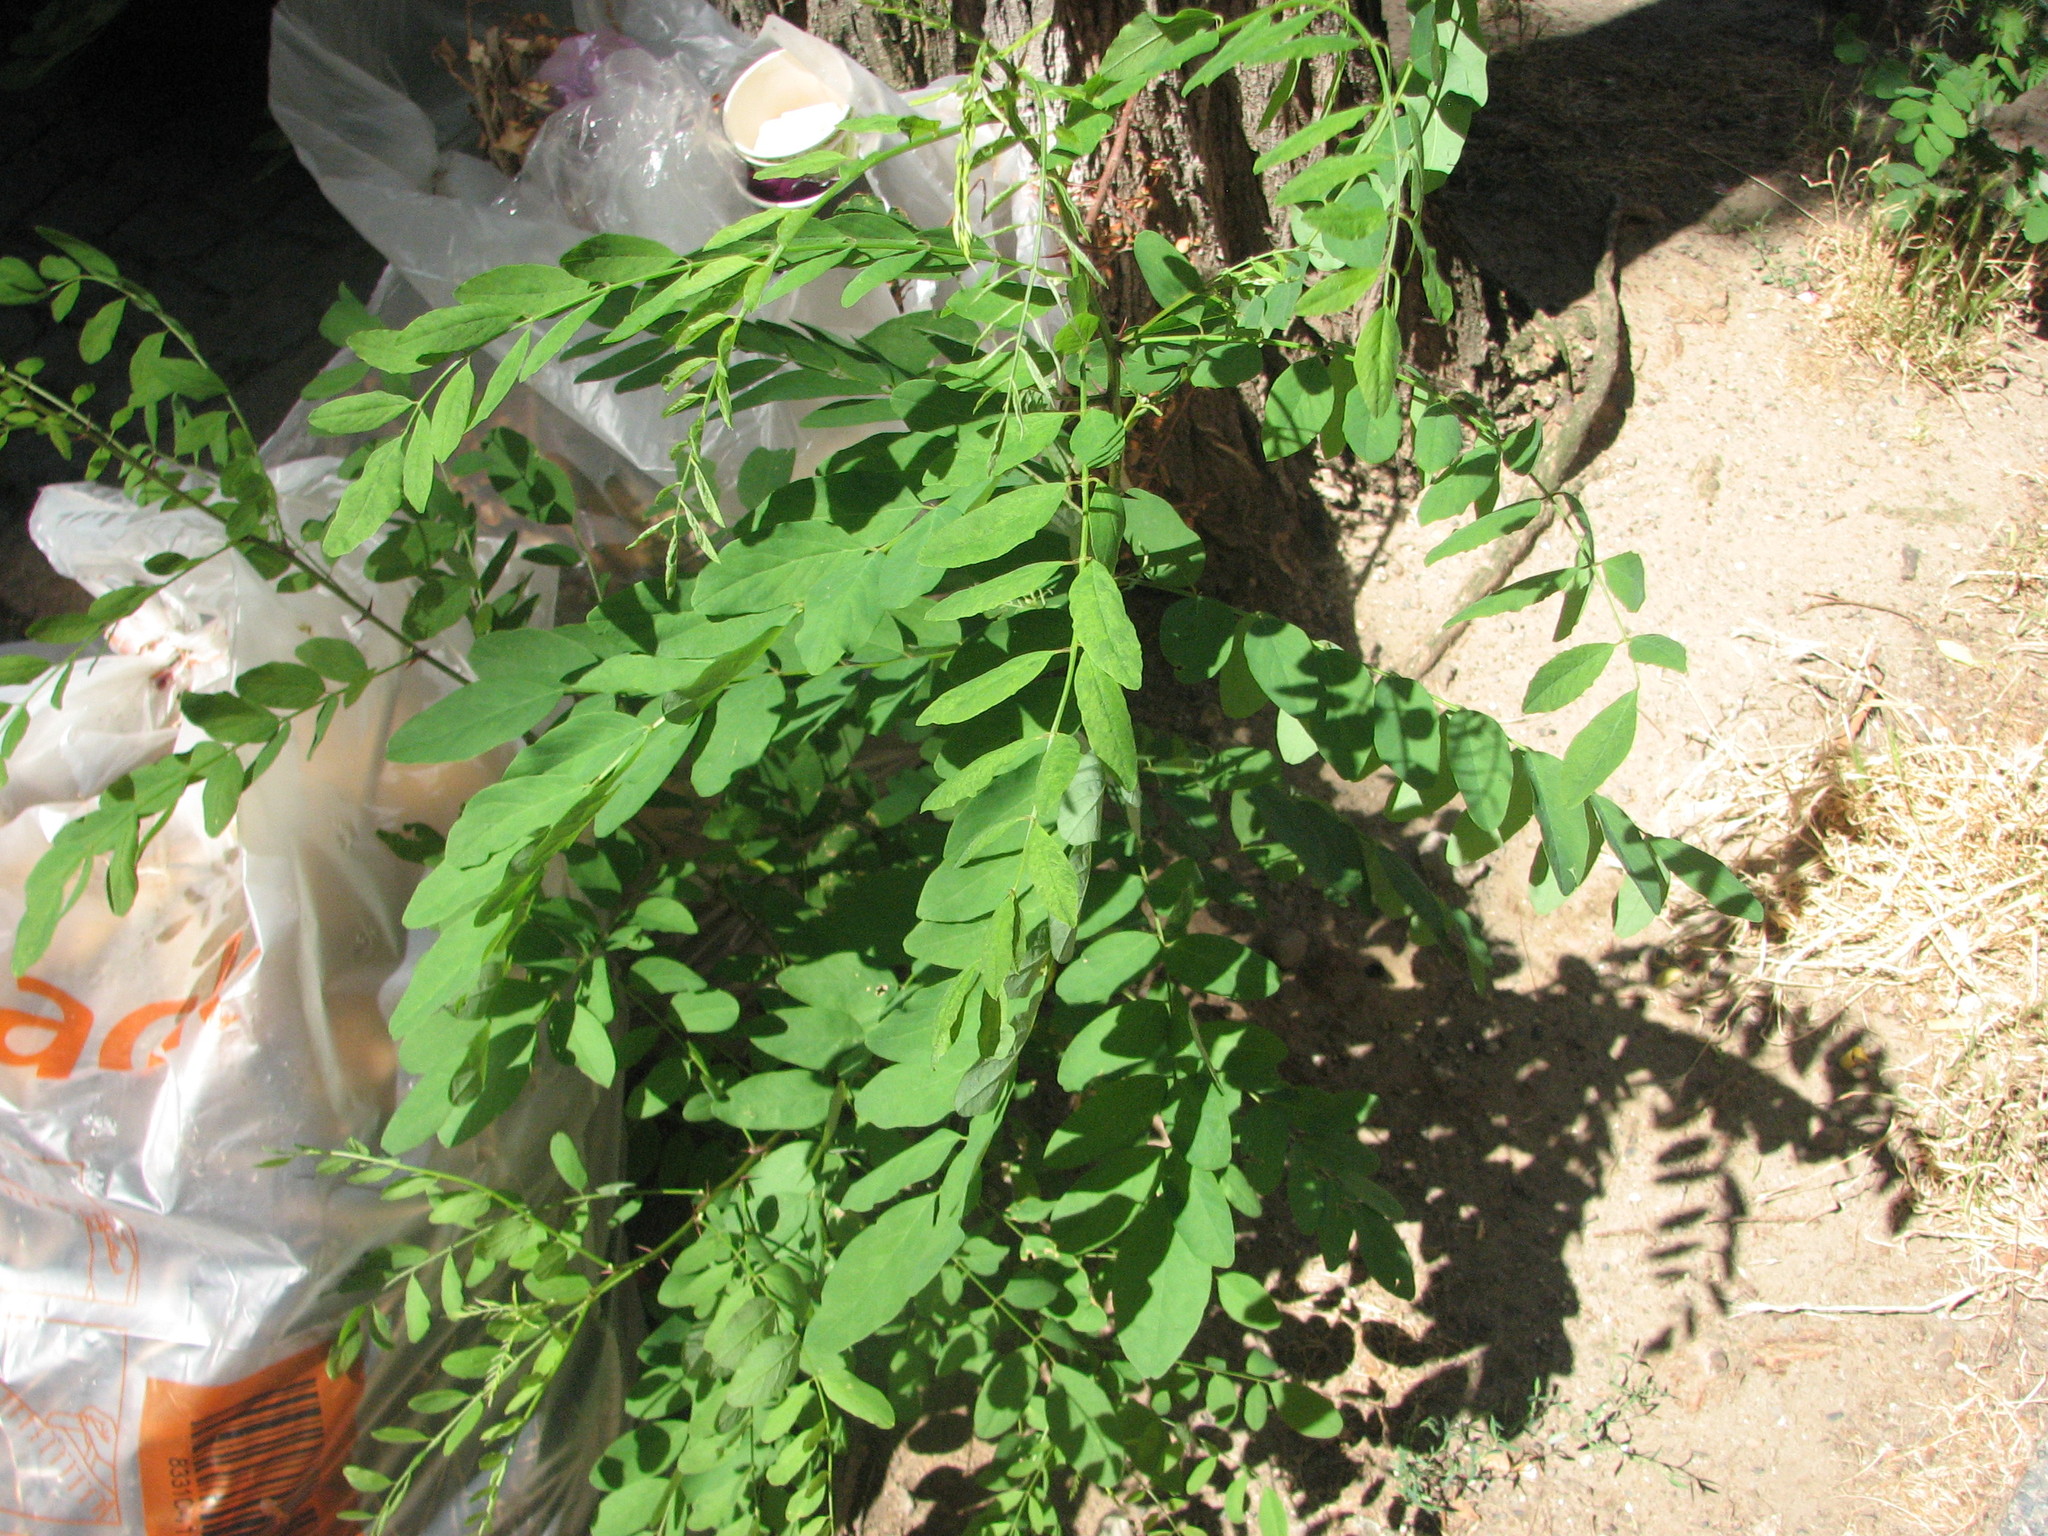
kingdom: Plantae
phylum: Tracheophyta
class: Magnoliopsida
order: Fabales
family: Fabaceae
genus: Robinia
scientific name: Robinia pseudoacacia
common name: Black locust
